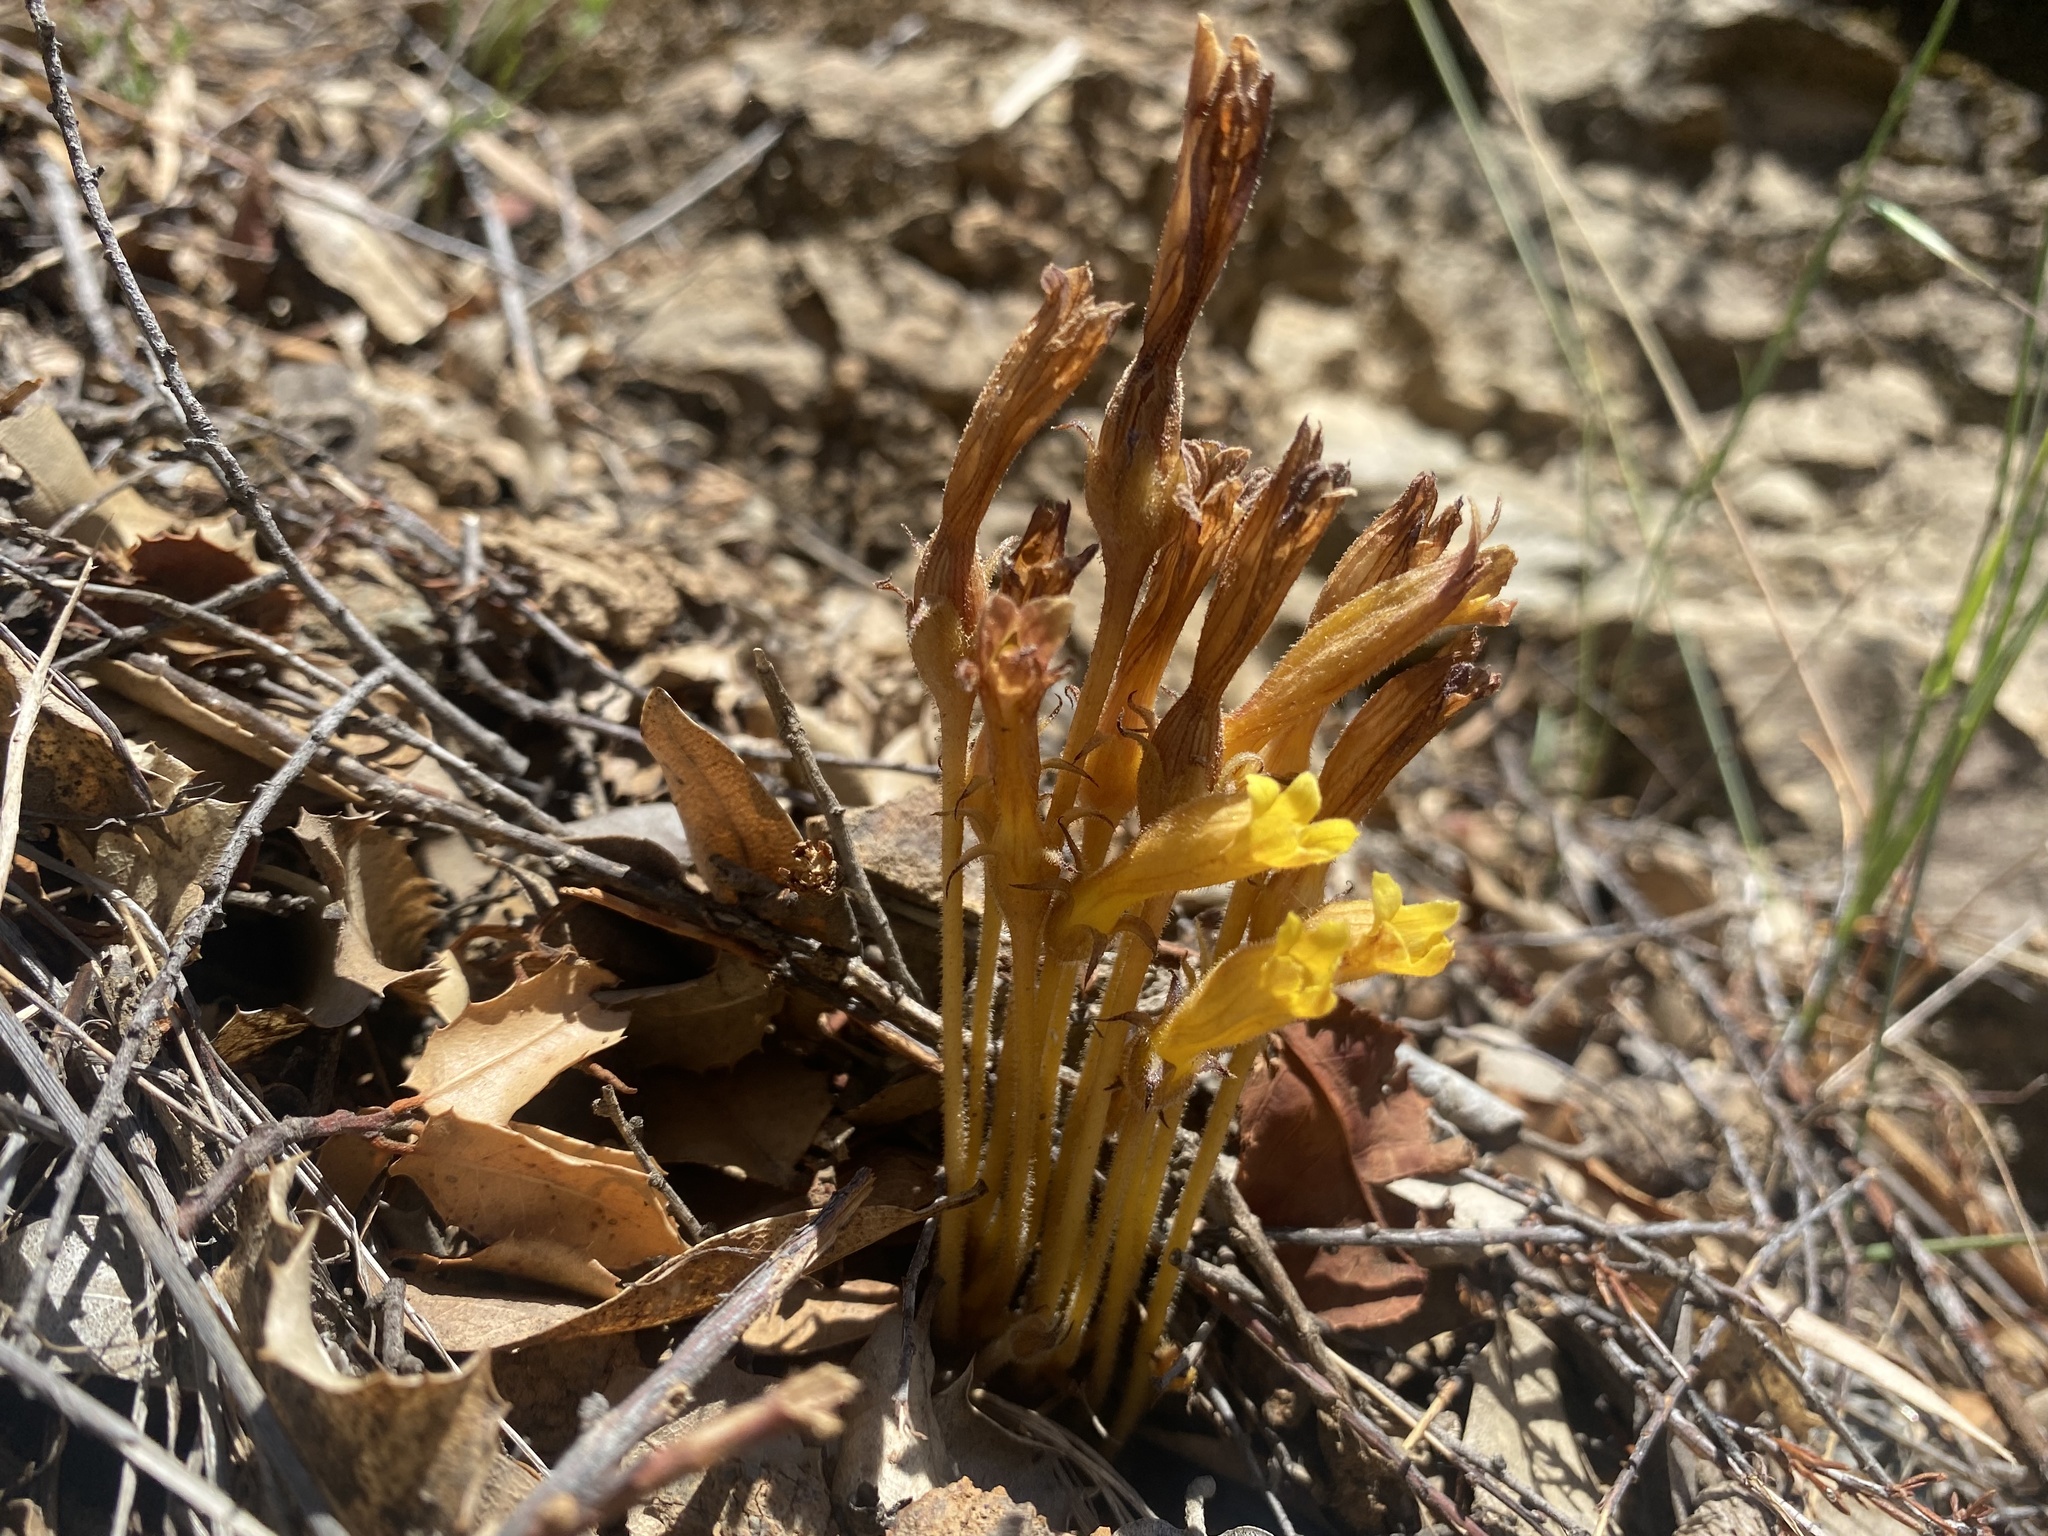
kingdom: Plantae
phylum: Tracheophyta
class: Magnoliopsida
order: Lamiales
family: Orobanchaceae
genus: Aphyllon
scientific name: Aphyllon franciscanum
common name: San francisco broomrape
